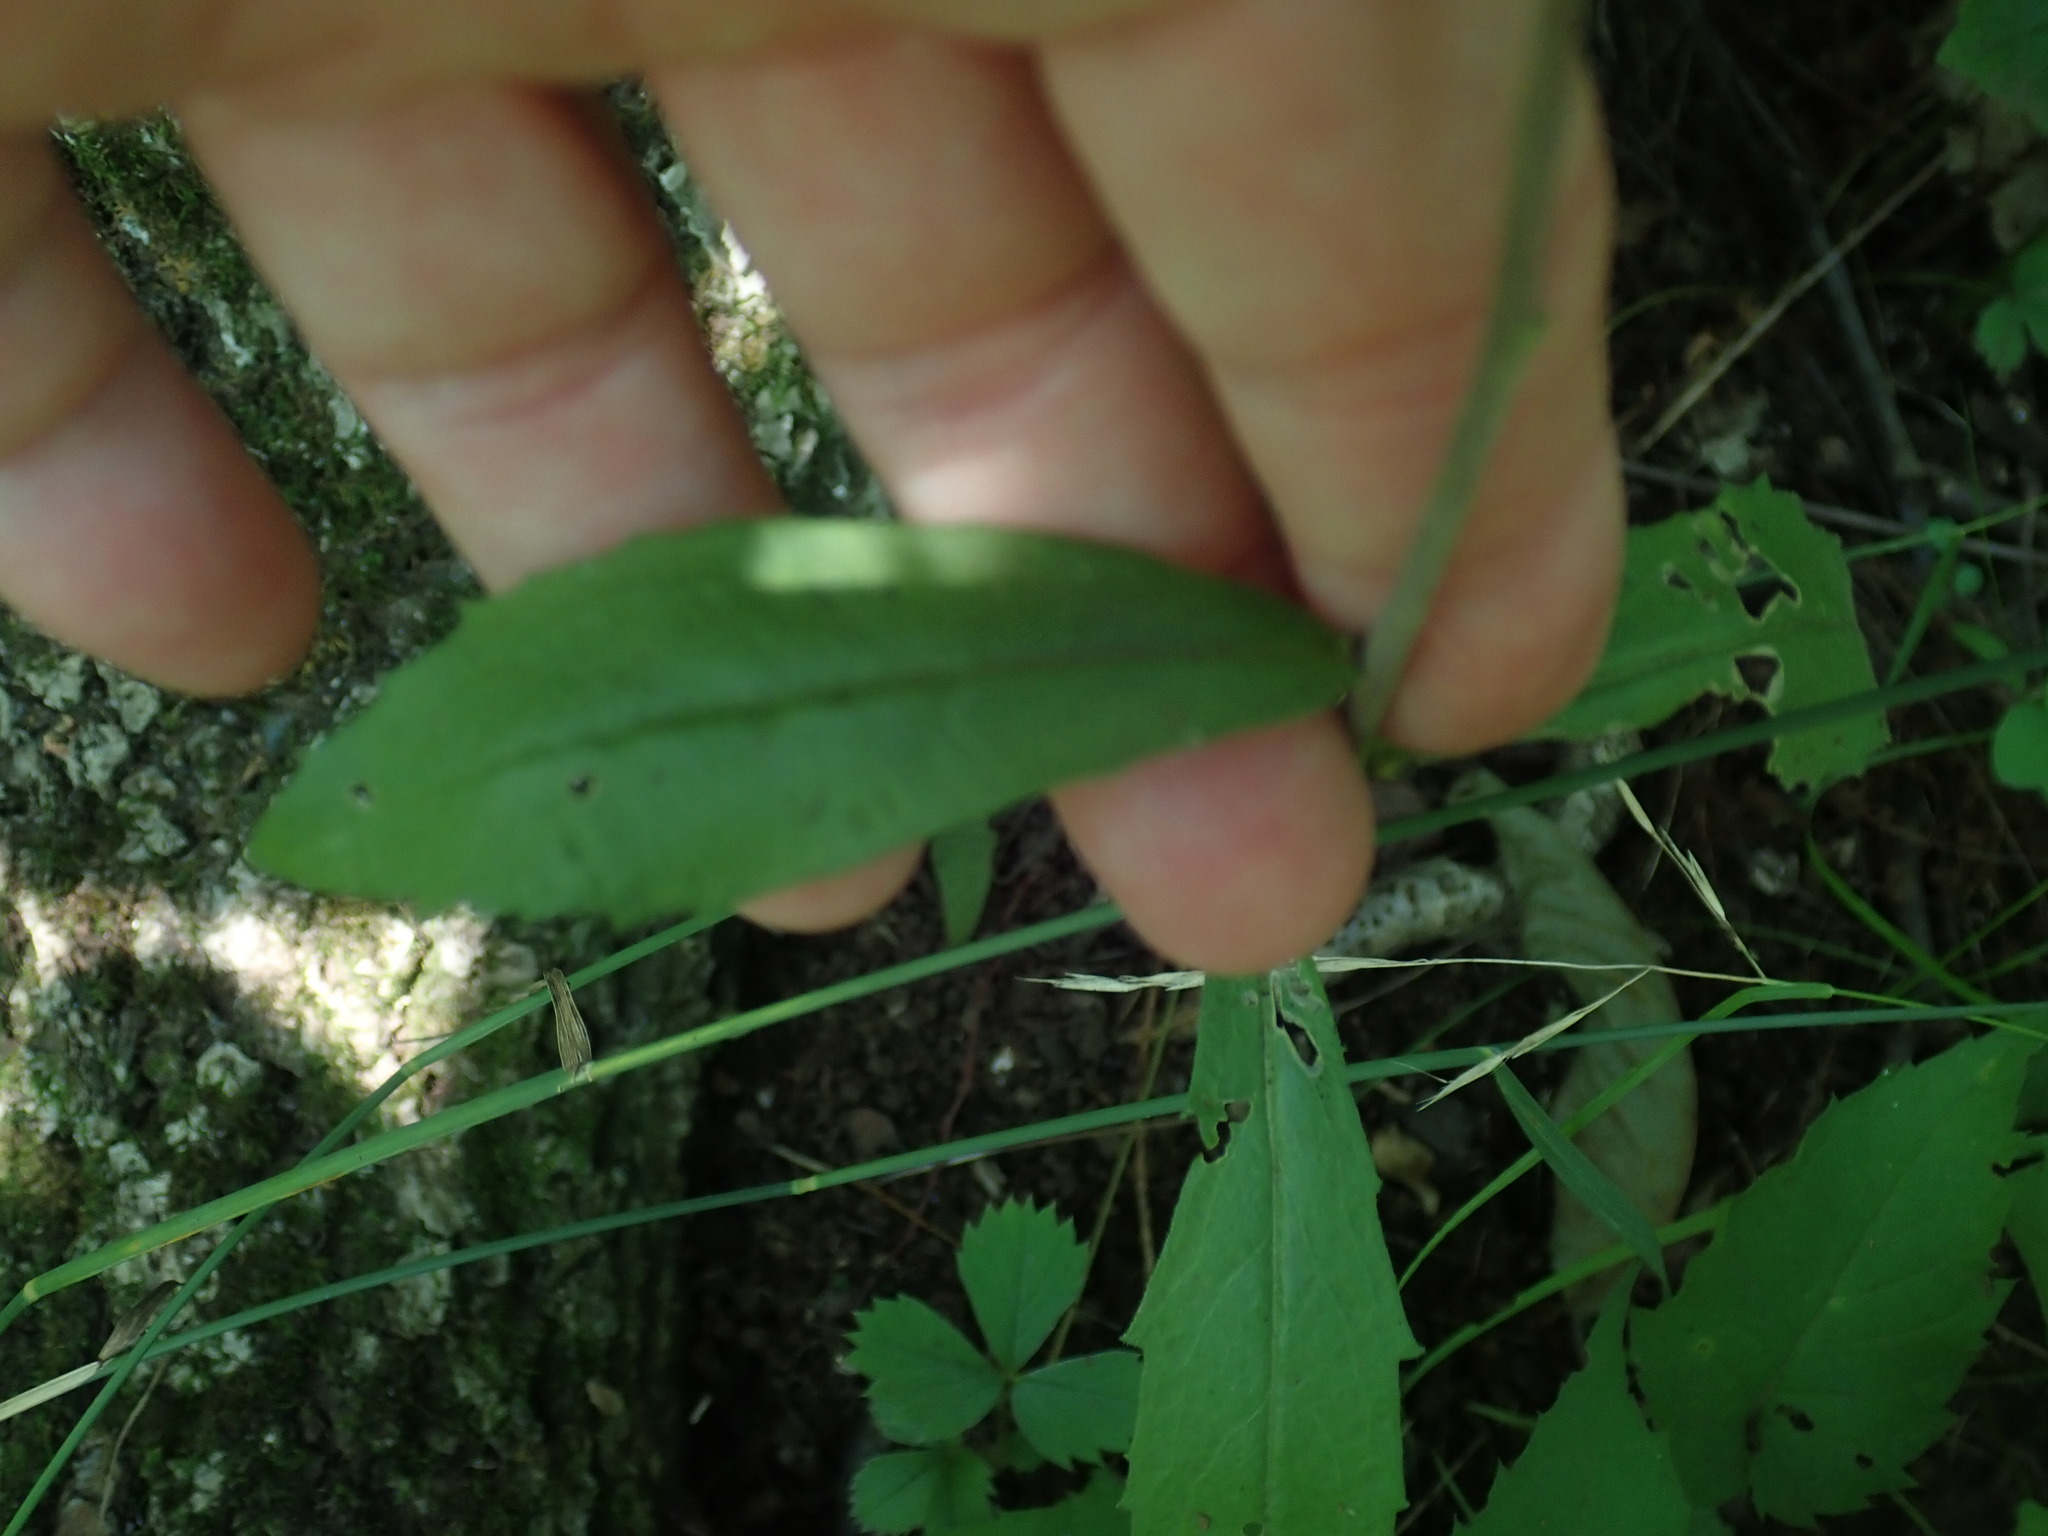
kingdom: Plantae
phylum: Tracheophyta
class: Magnoliopsida
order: Brassicales
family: Brassicaceae
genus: Borodinia
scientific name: Borodinia canadensis
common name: Sicklepod
